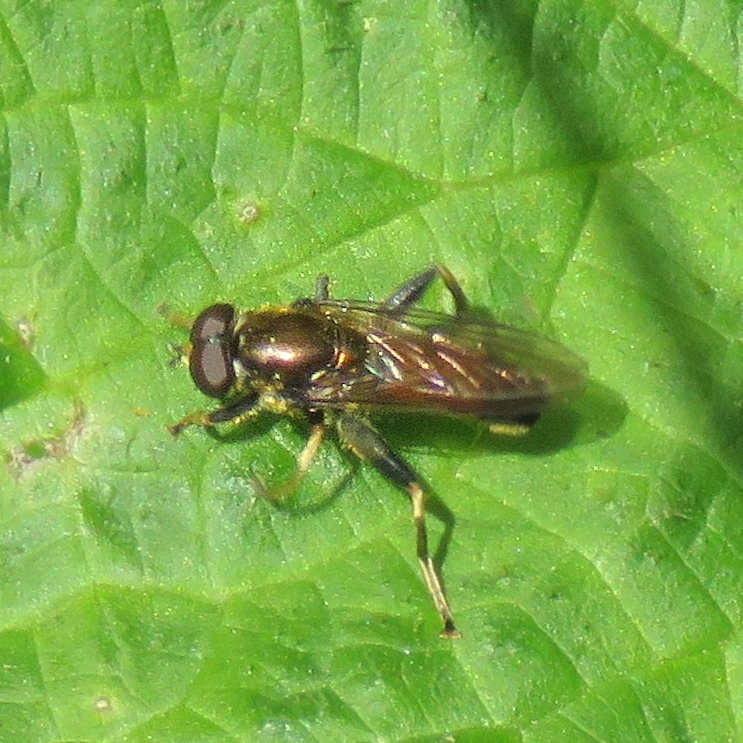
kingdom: Animalia
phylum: Arthropoda
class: Insecta
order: Diptera
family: Syrphidae
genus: Xylota
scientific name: Xylota segnis
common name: Brown-toed forest fly
